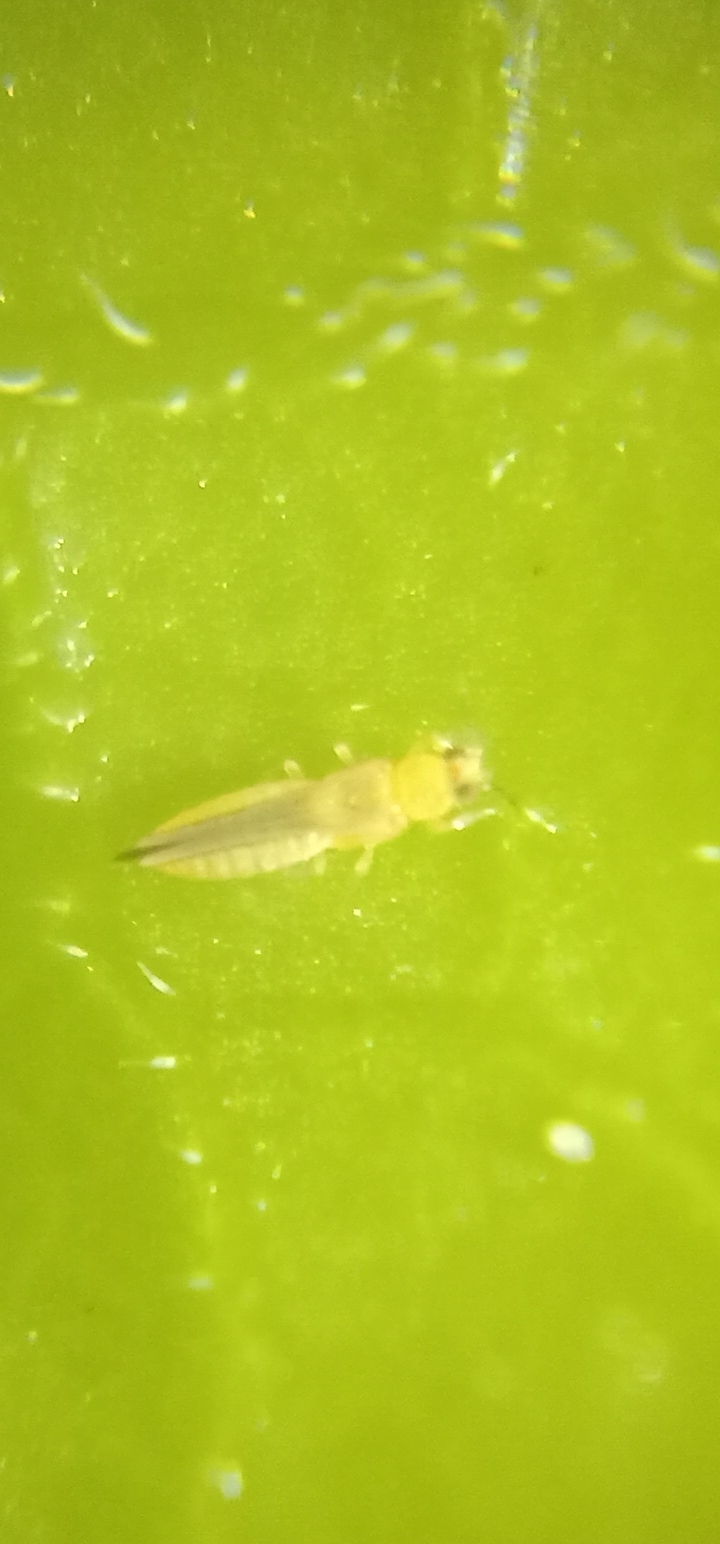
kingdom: Animalia
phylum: Arthropoda
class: Insecta
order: Thysanoptera
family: Thripidae
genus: Scirtothrips
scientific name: Scirtothrips dorsalis
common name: Thrips
